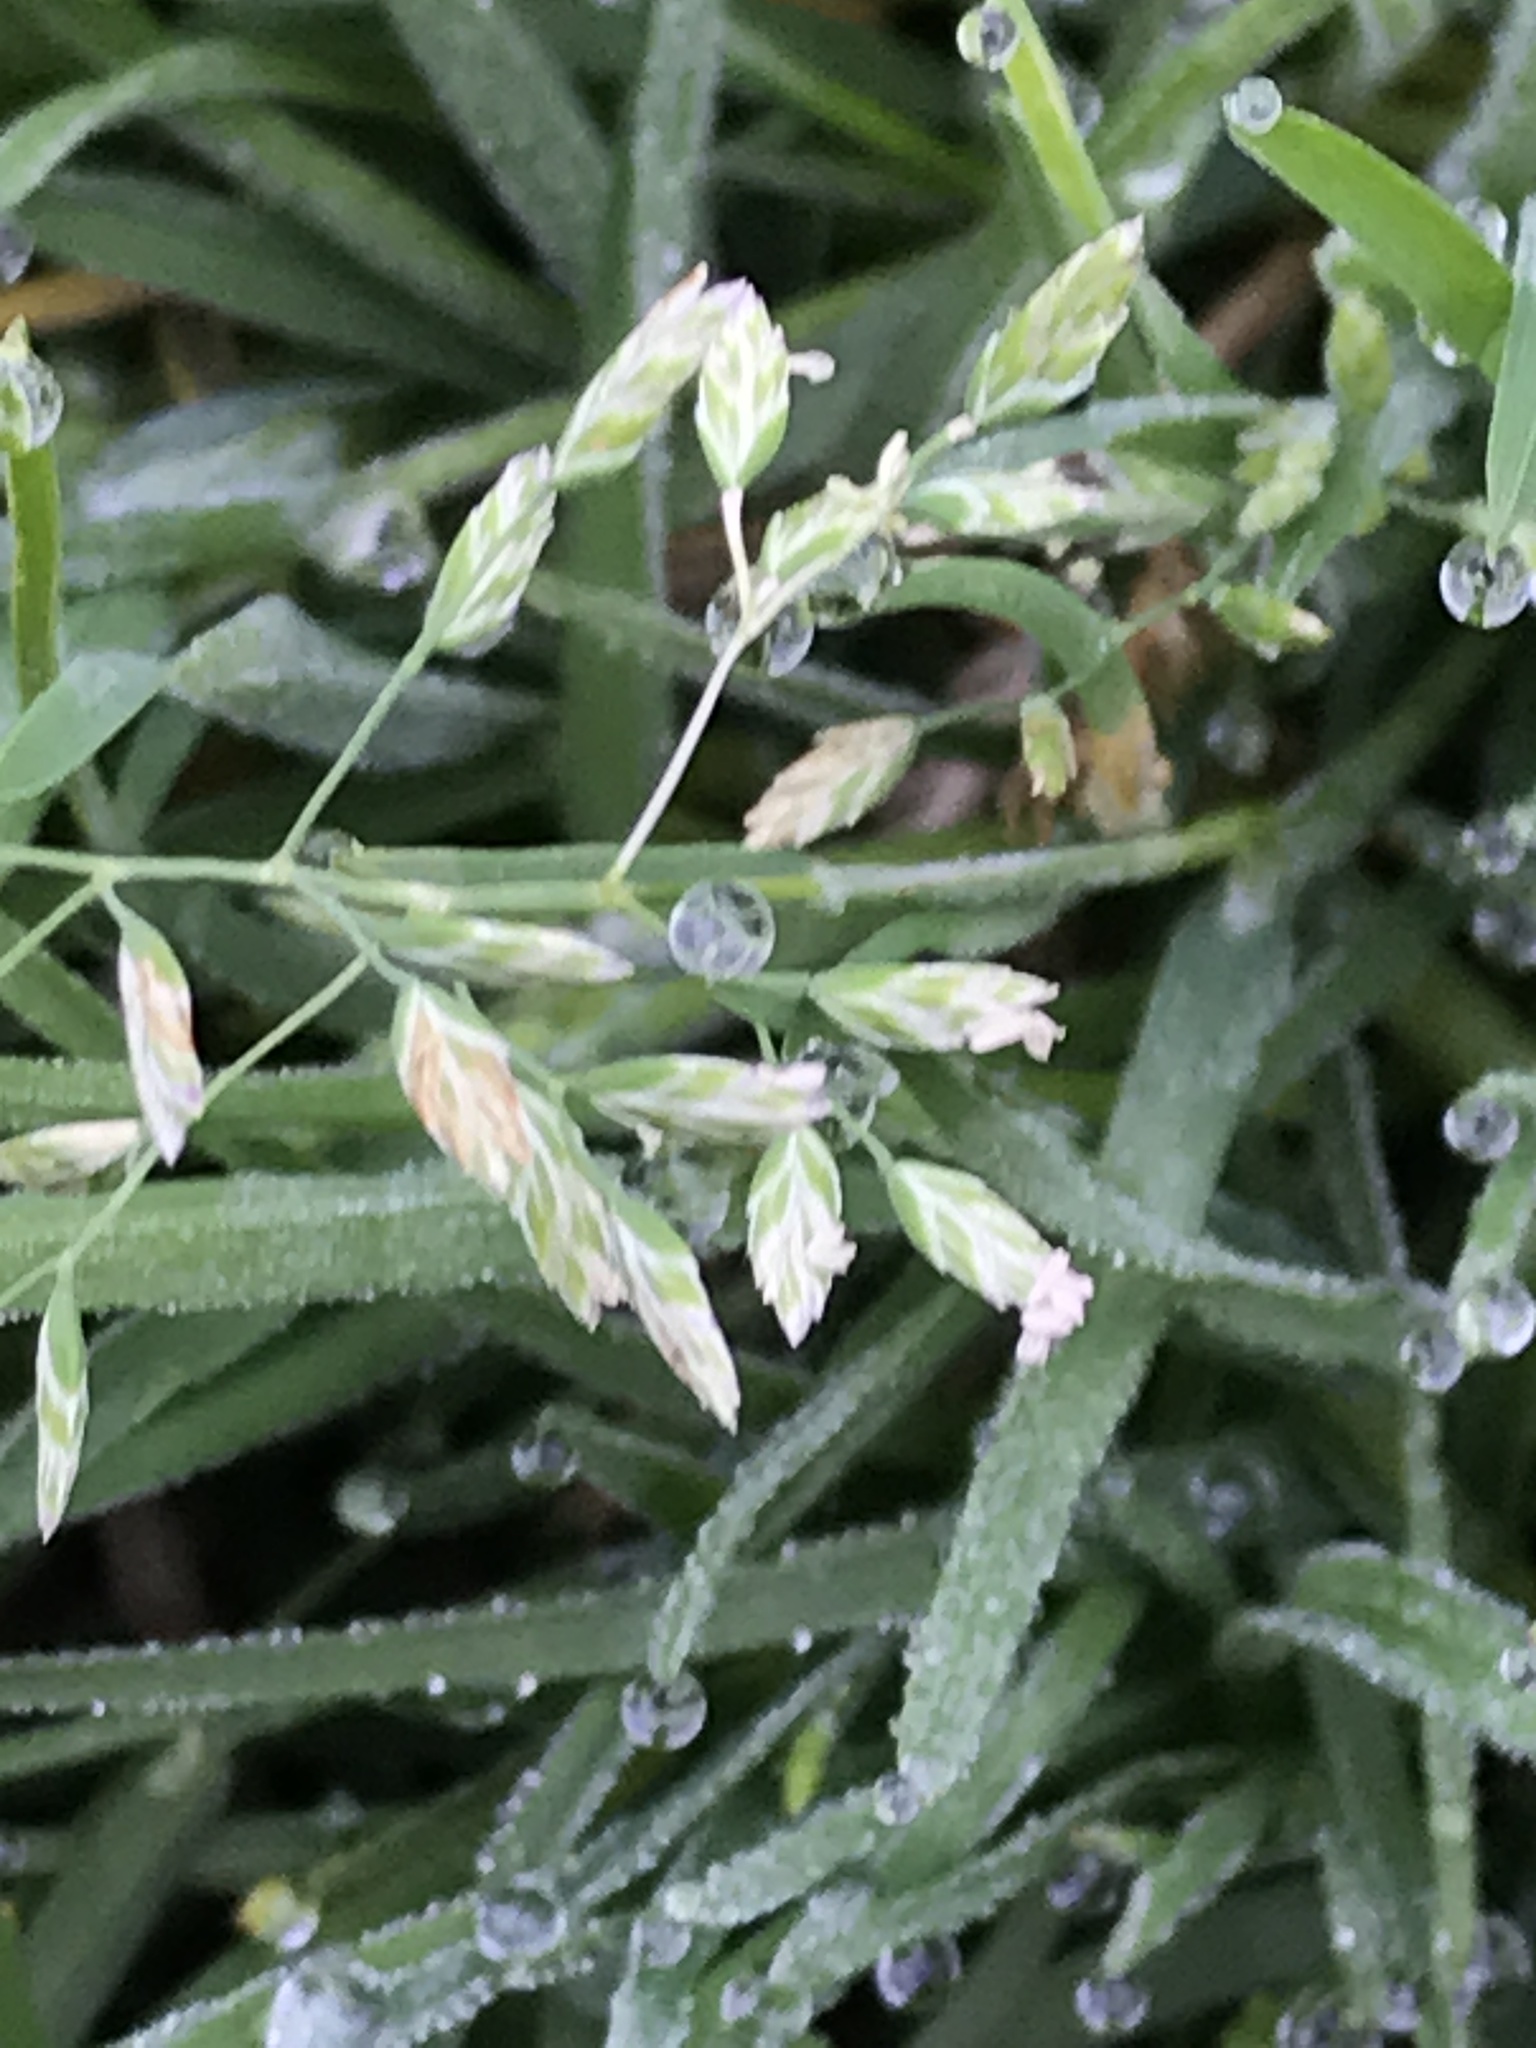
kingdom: Plantae
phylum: Tracheophyta
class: Liliopsida
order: Poales
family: Poaceae
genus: Poa
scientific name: Poa annua
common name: Annual bluegrass
